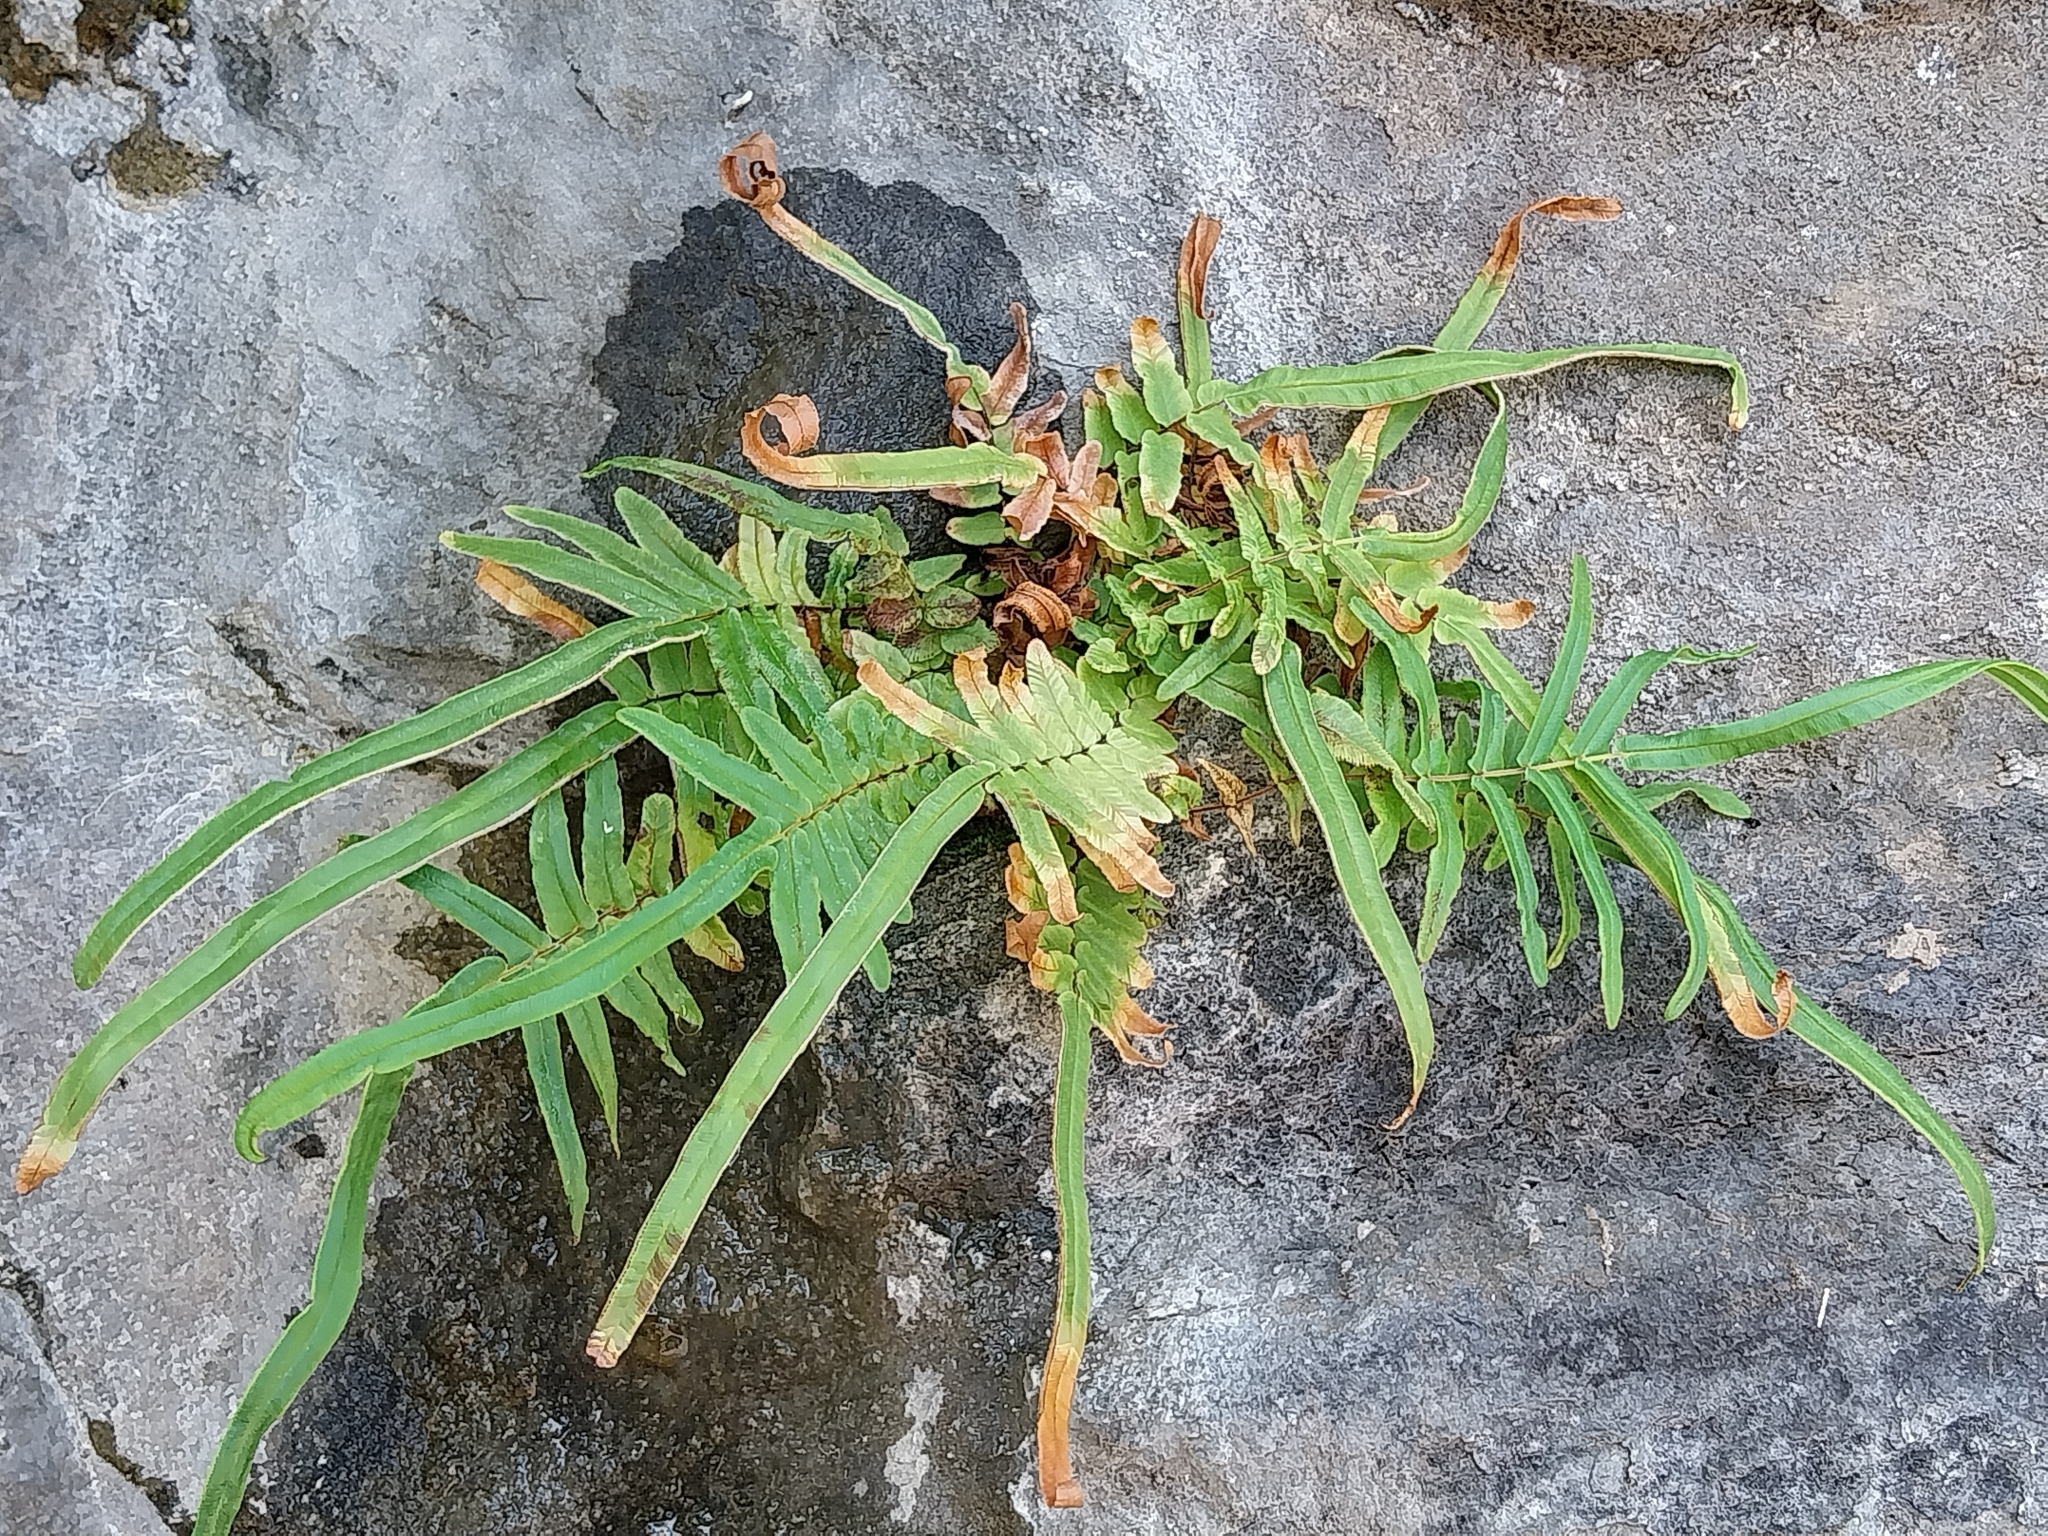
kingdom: Plantae
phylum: Tracheophyta
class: Polypodiopsida
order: Polypodiales
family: Pteridaceae
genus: Pteris
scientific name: Pteris vittata
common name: Ladder brake
